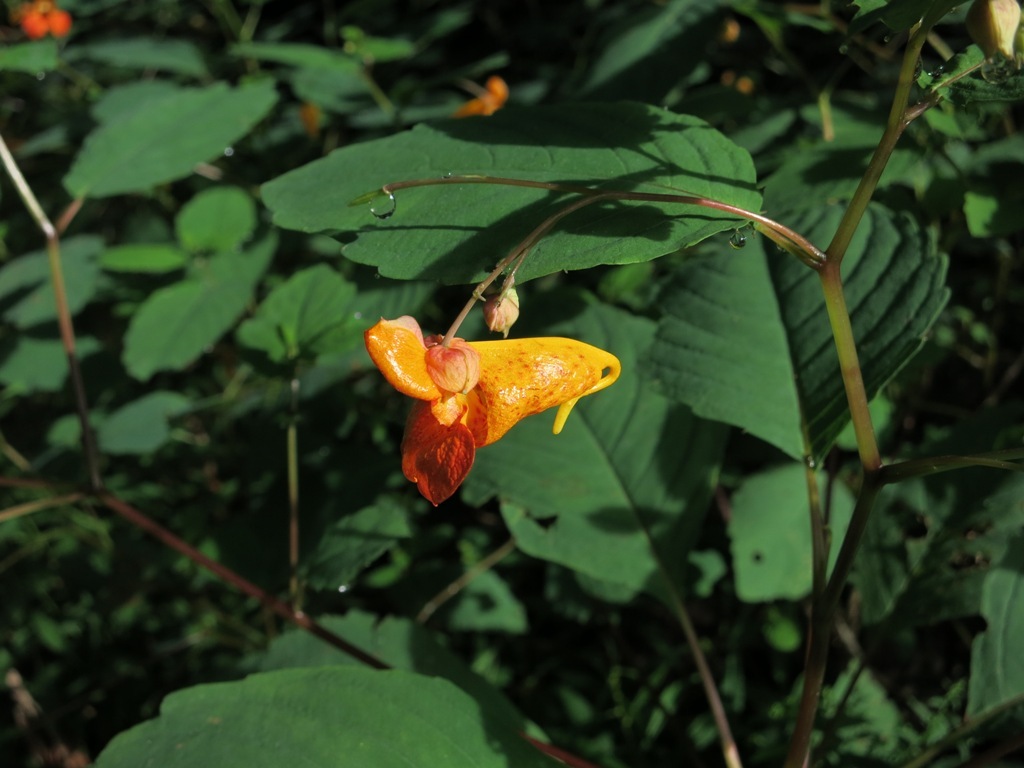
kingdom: Plantae
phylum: Tracheophyta
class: Magnoliopsida
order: Ericales
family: Balsaminaceae
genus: Impatiens
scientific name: Impatiens capensis
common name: Orange balsam
